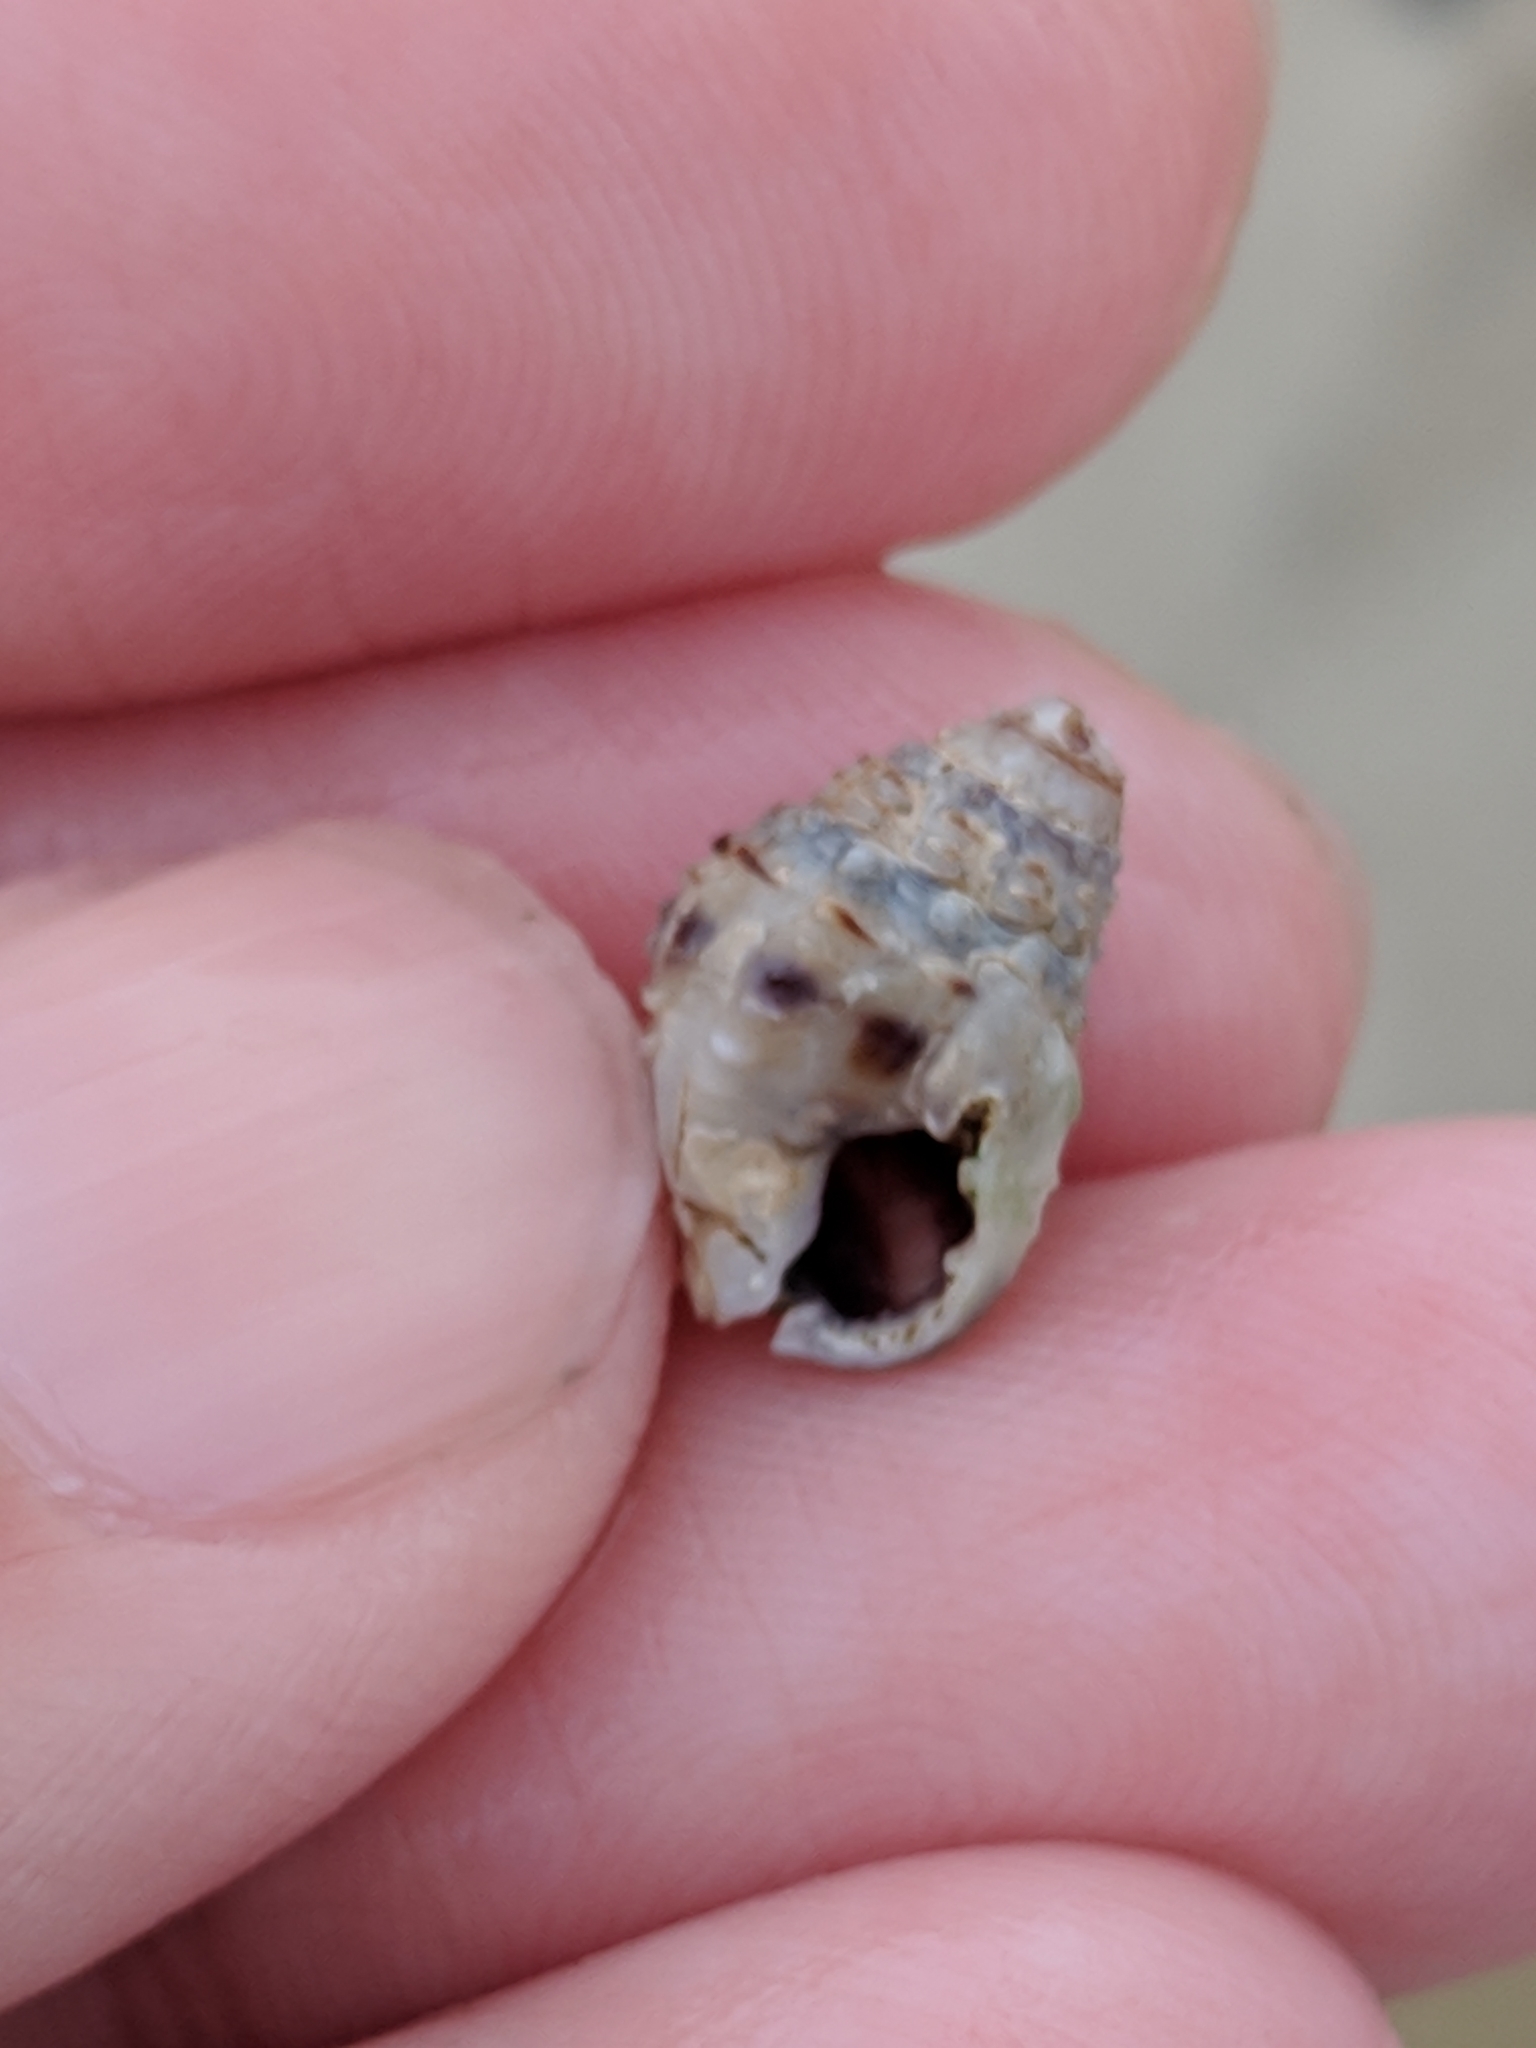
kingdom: Animalia
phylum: Mollusca
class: Gastropoda
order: Neogastropoda
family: Nassariidae
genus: Phrontis
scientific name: Phrontis vibex
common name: Bruised nassa
